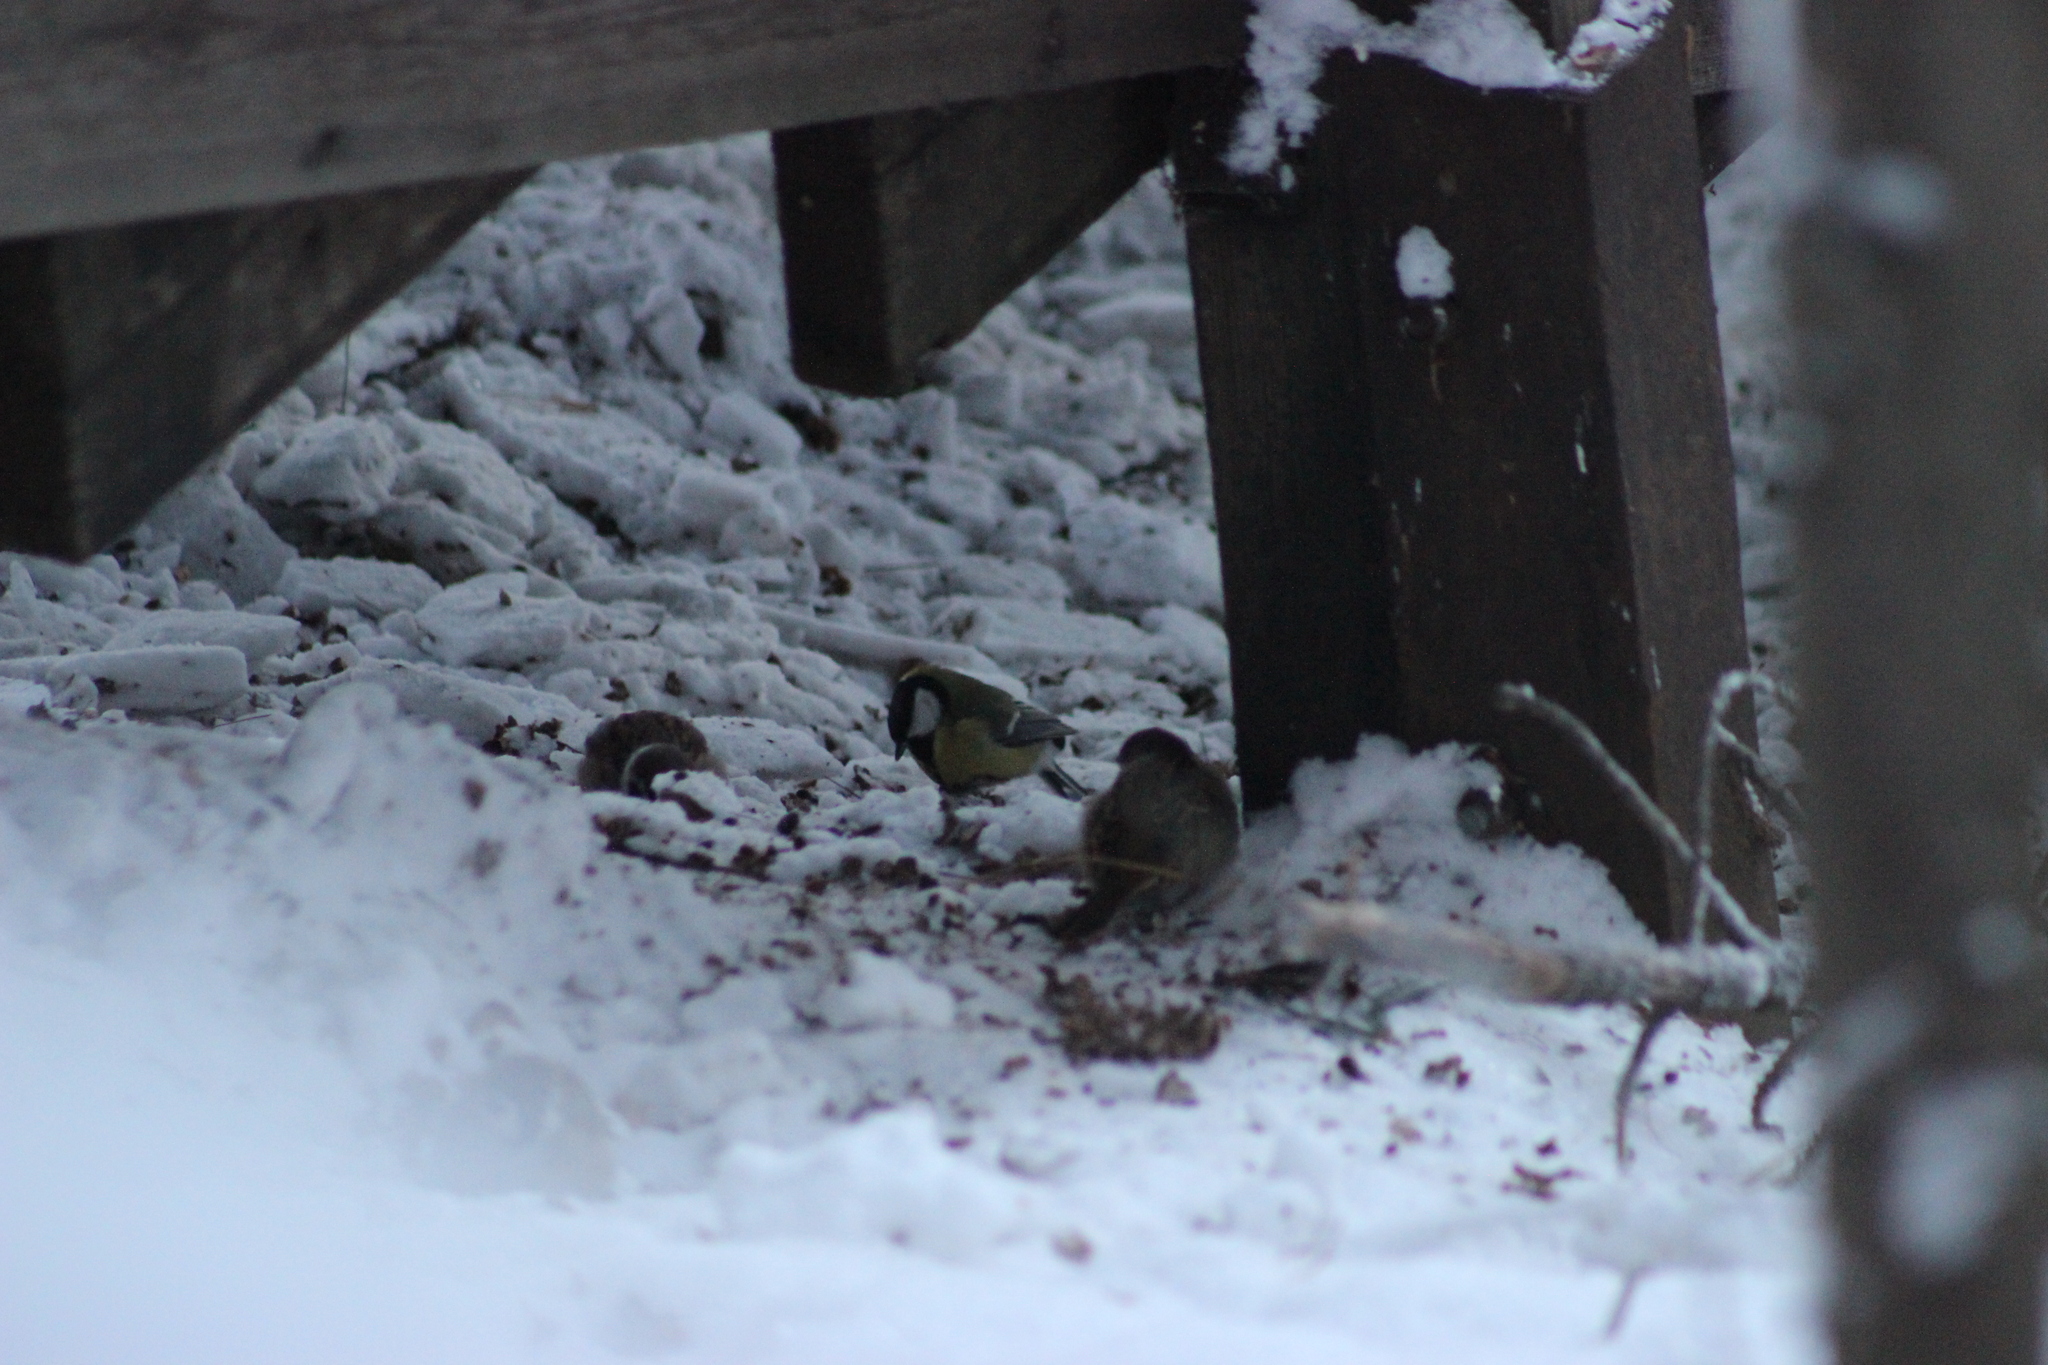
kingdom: Animalia
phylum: Chordata
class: Aves
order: Passeriformes
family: Paridae
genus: Parus
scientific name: Parus major
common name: Great tit
